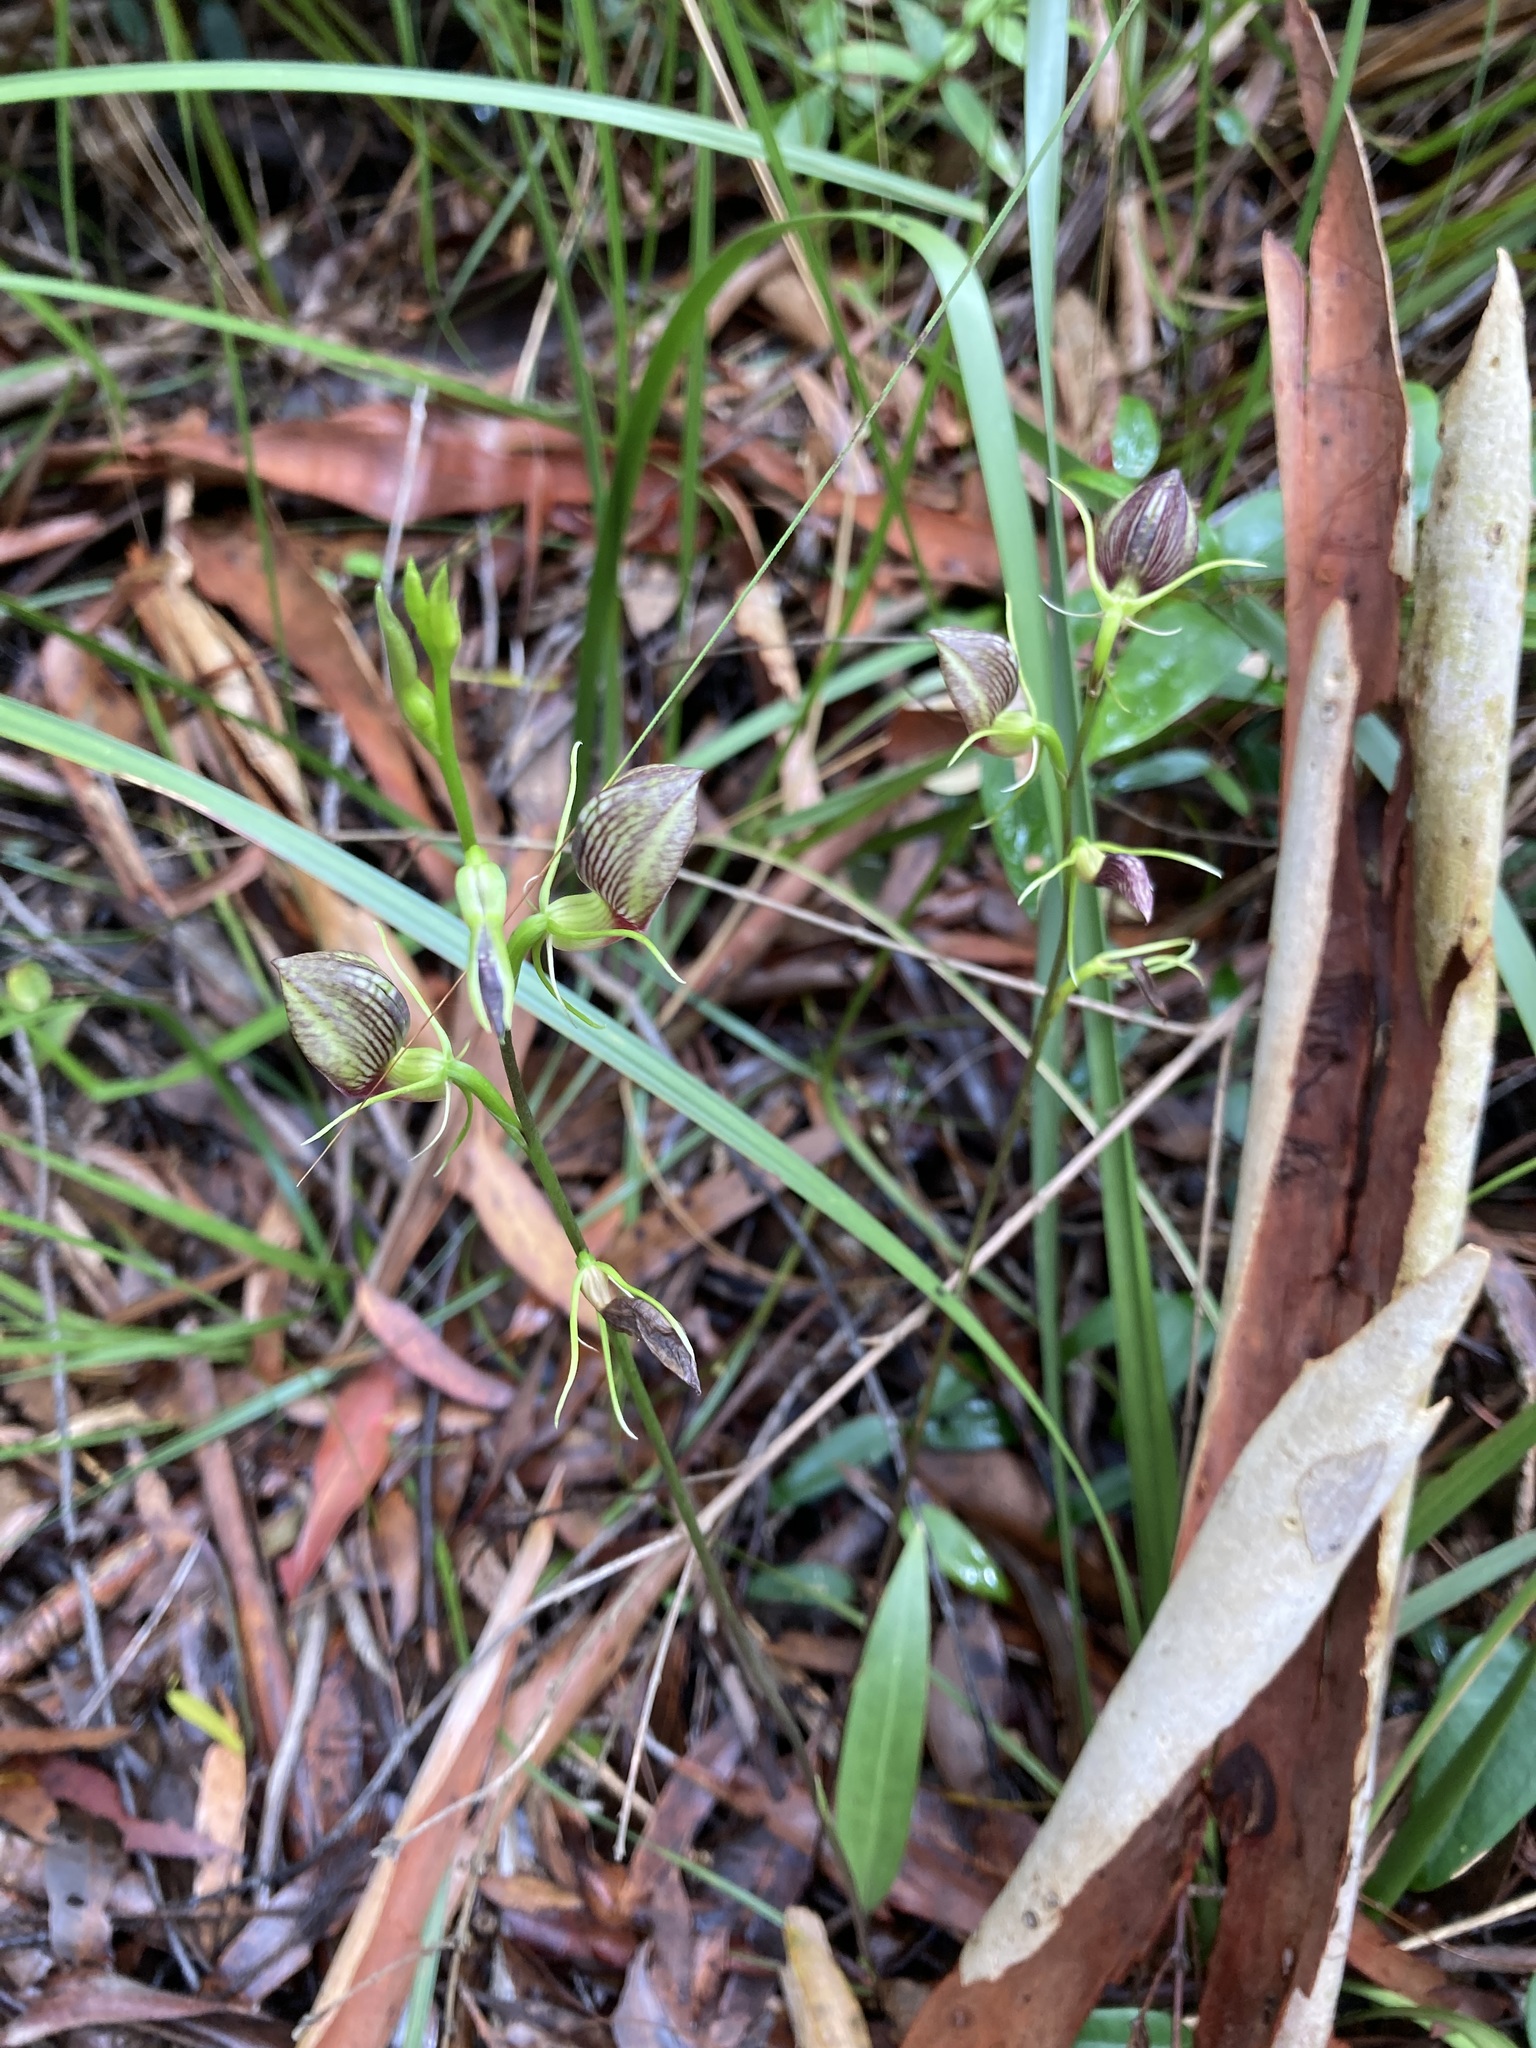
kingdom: Plantae
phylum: Tracheophyta
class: Liliopsida
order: Asparagales
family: Orchidaceae
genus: Cryptostylis
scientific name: Cryptostylis erecta
